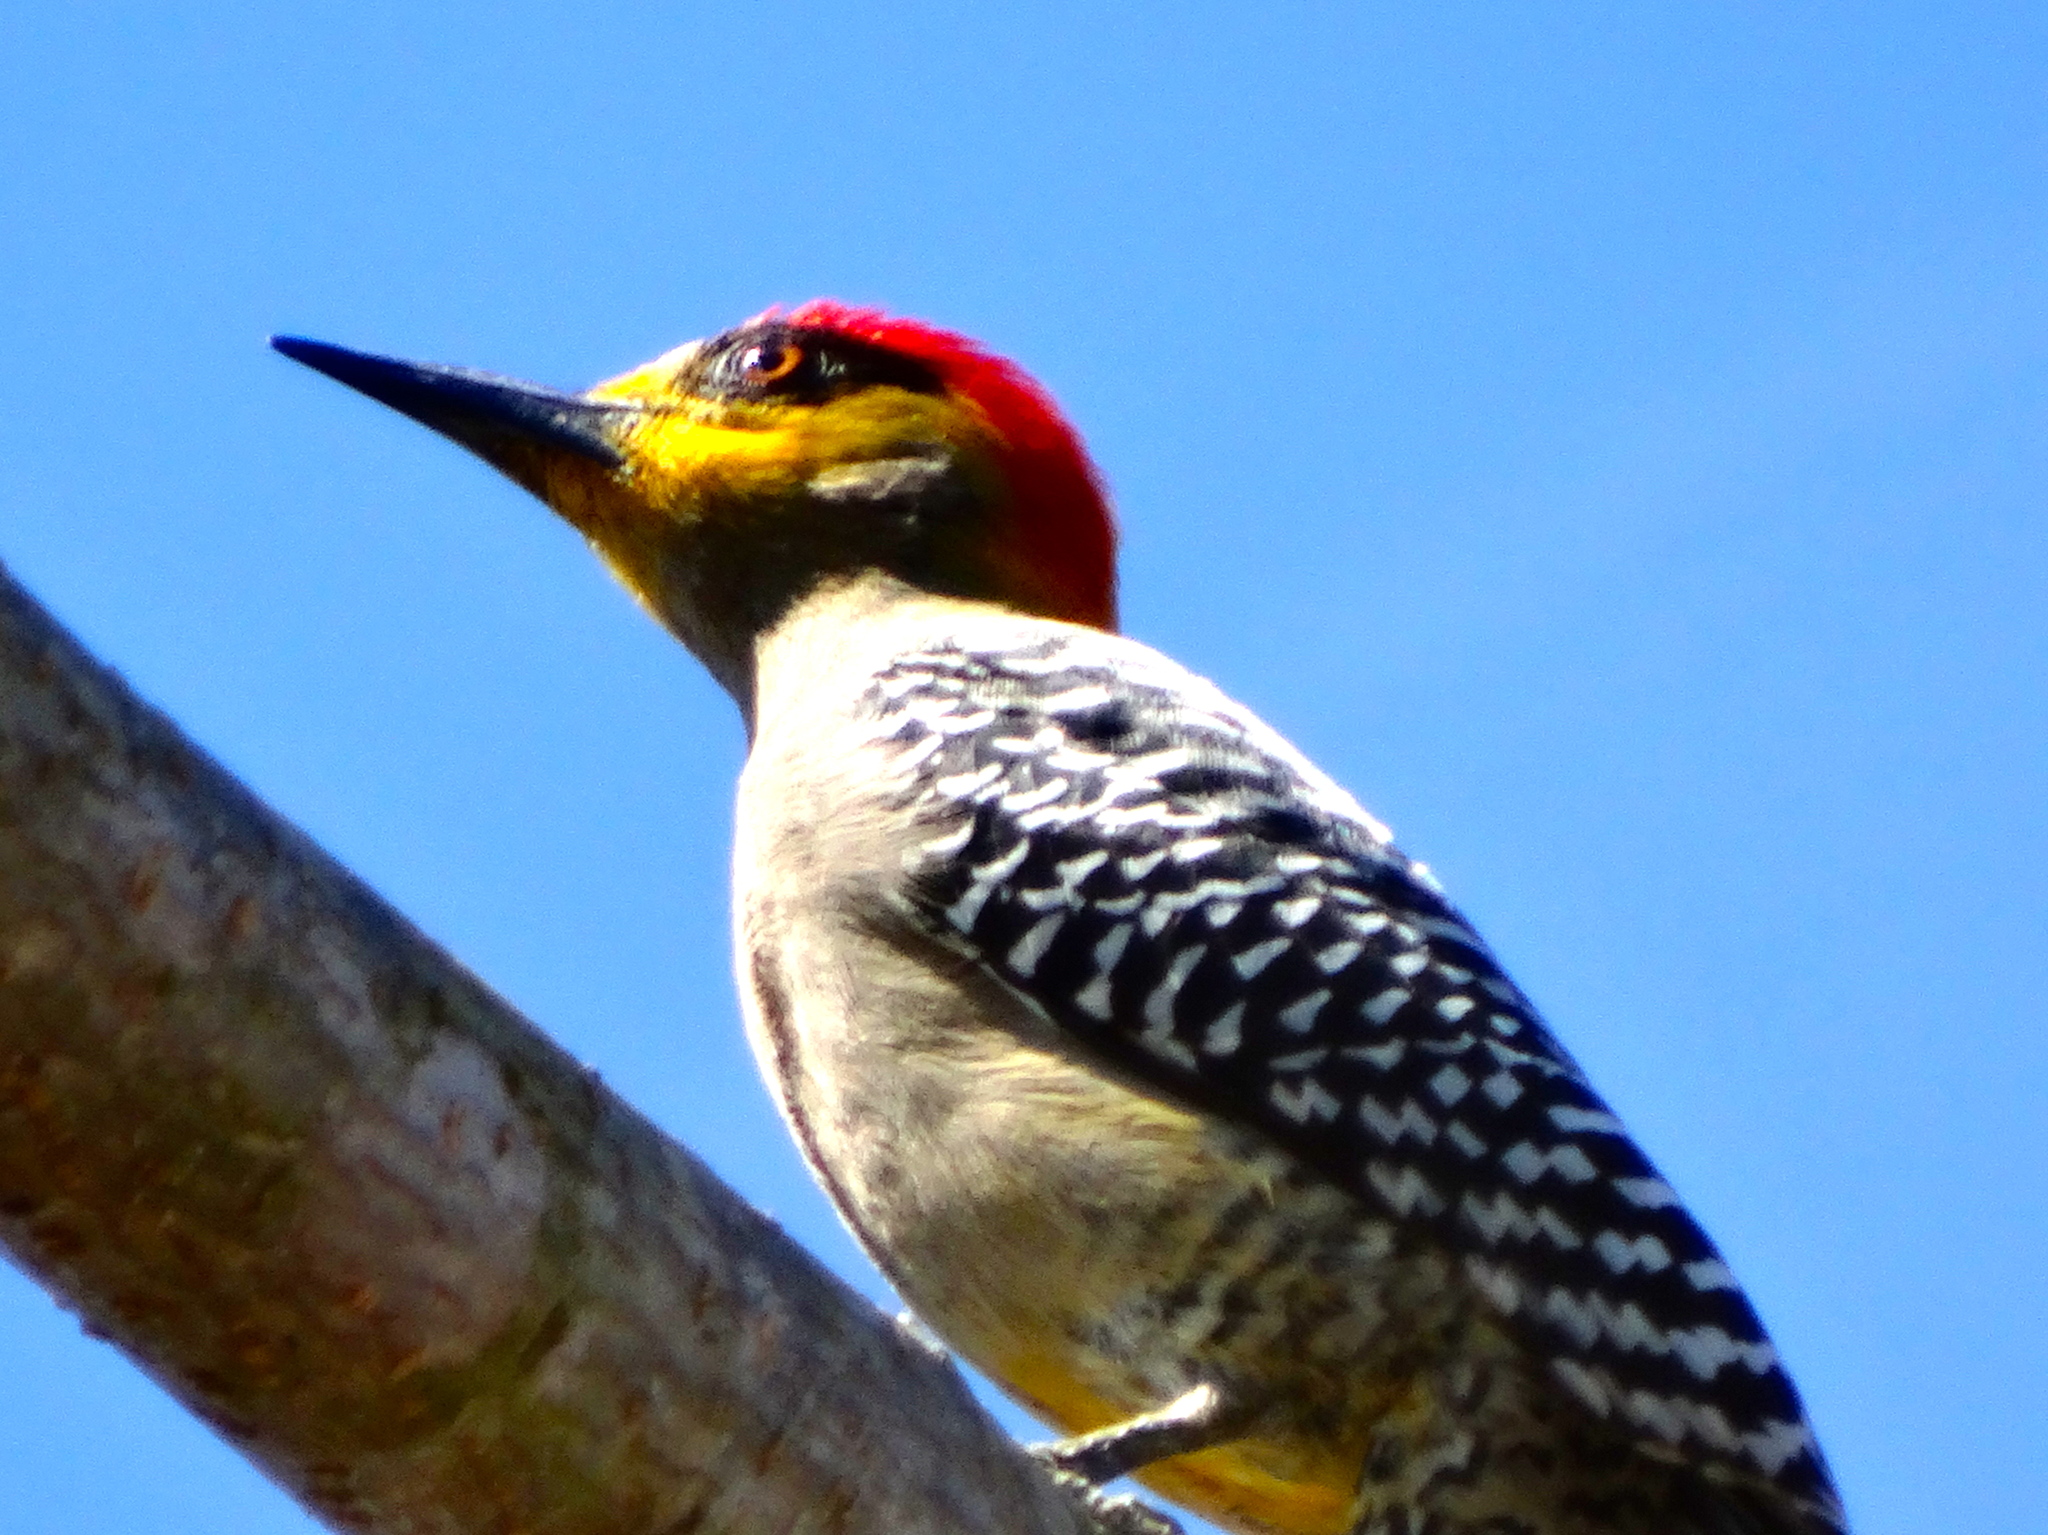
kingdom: Animalia
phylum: Chordata
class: Aves
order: Piciformes
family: Picidae
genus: Melanerpes
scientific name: Melanerpes chrysogenys
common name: Golden-cheeked woodpecker
